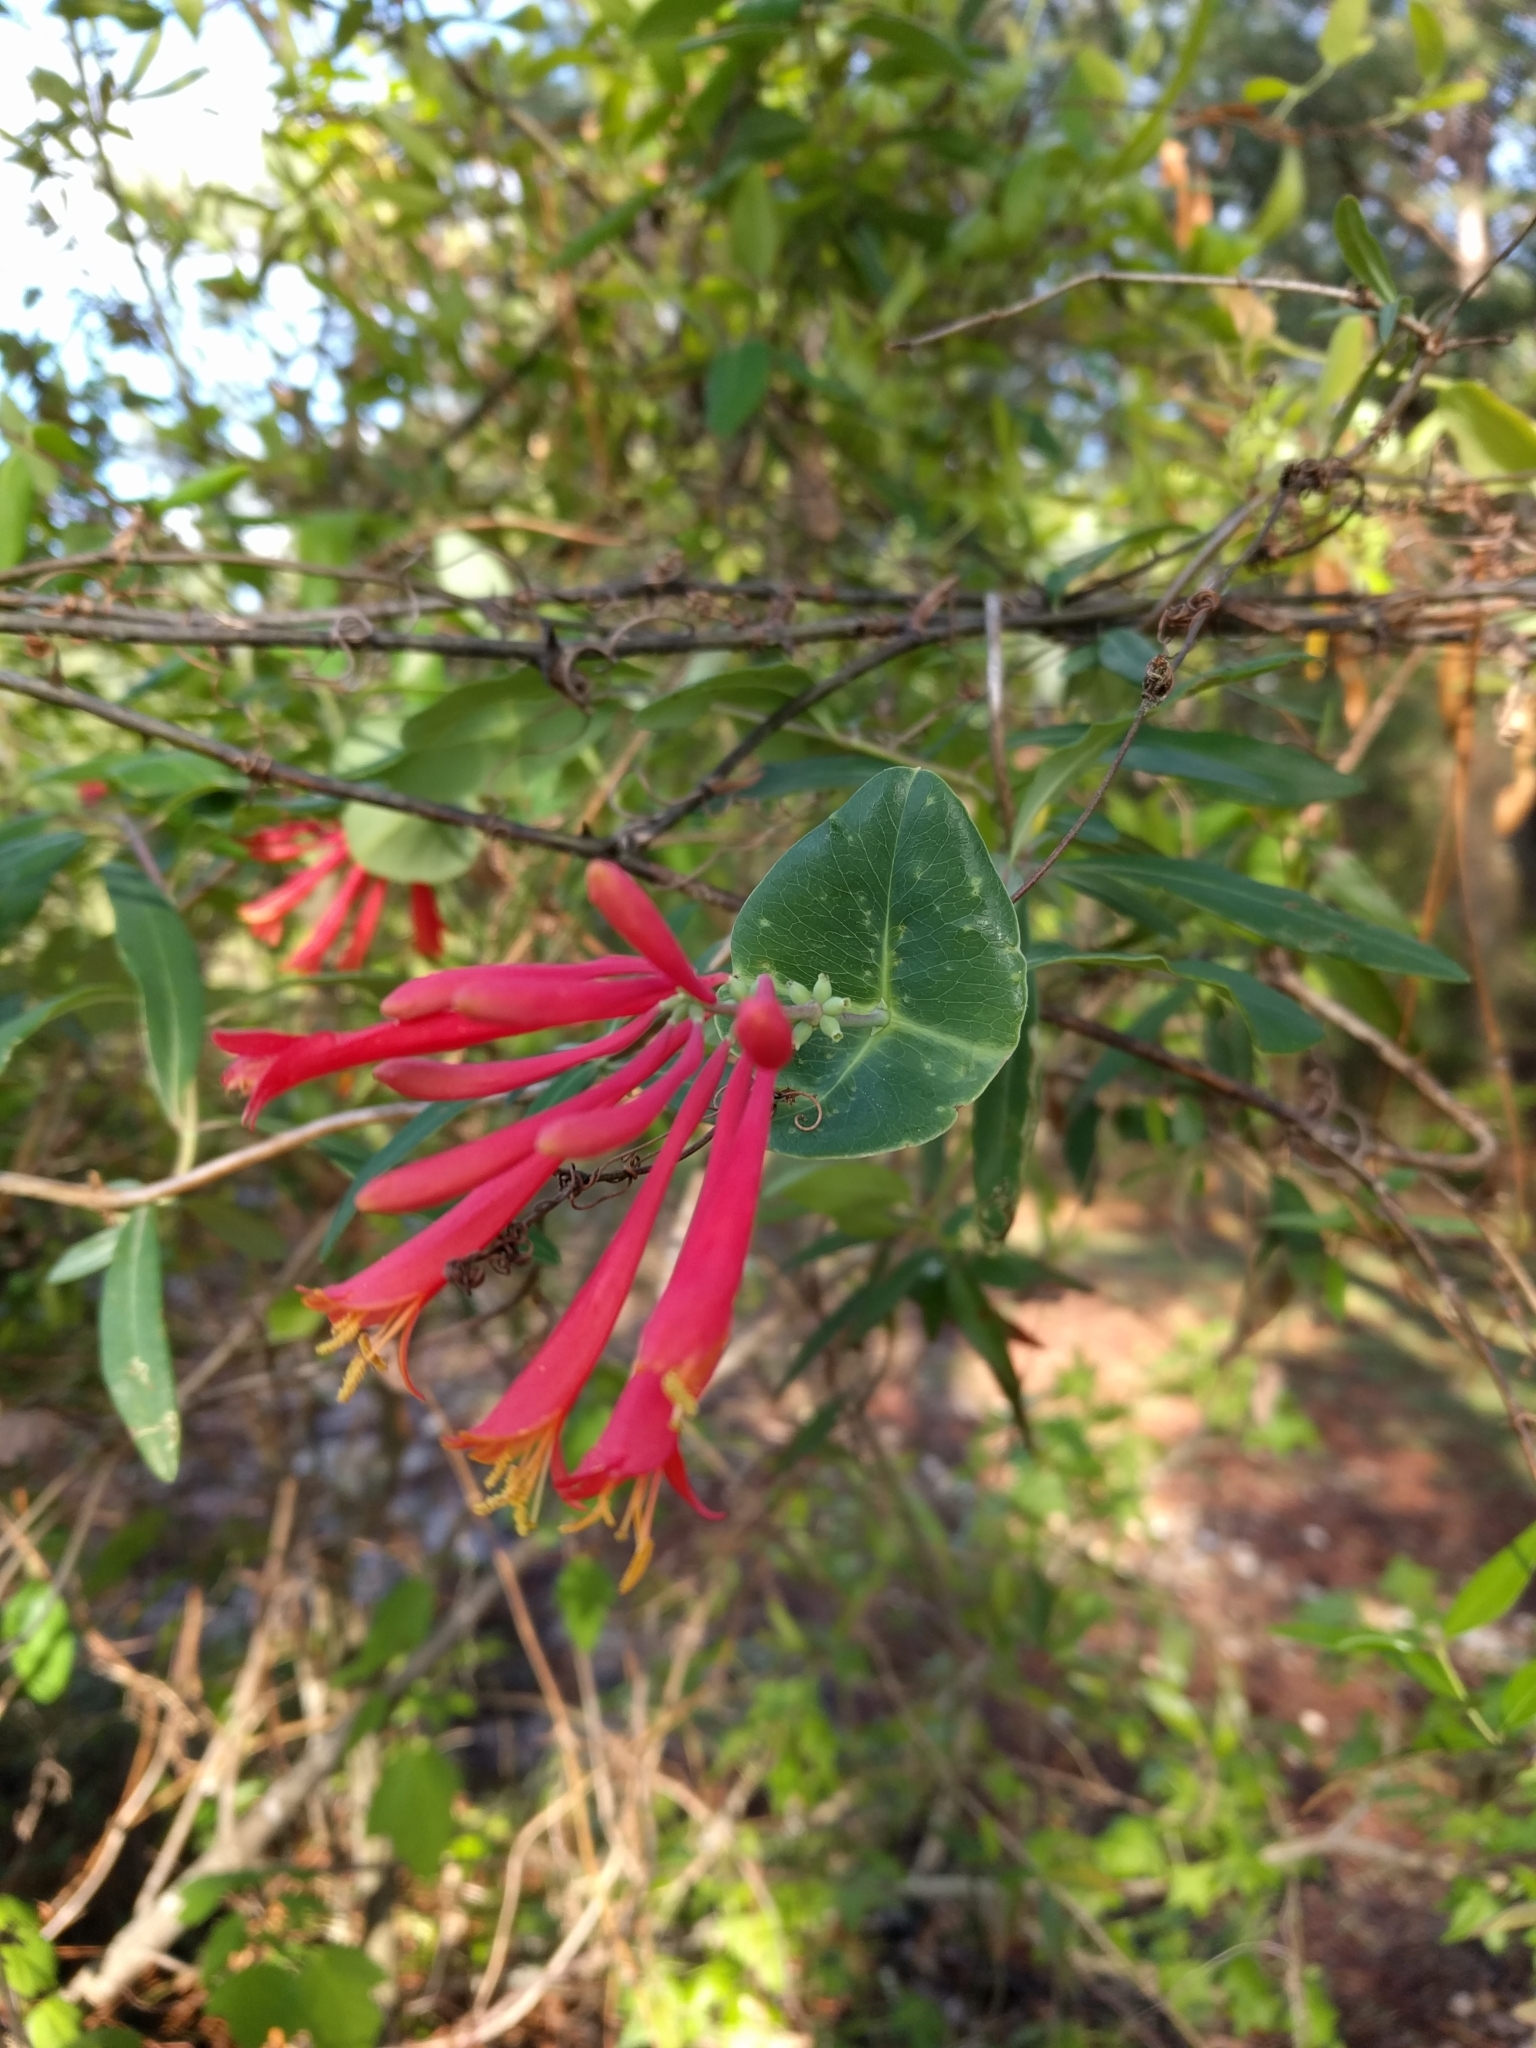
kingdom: Plantae
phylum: Tracheophyta
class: Magnoliopsida
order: Dipsacales
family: Caprifoliaceae
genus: Lonicera
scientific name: Lonicera sempervirens
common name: Coral honeysuckle
